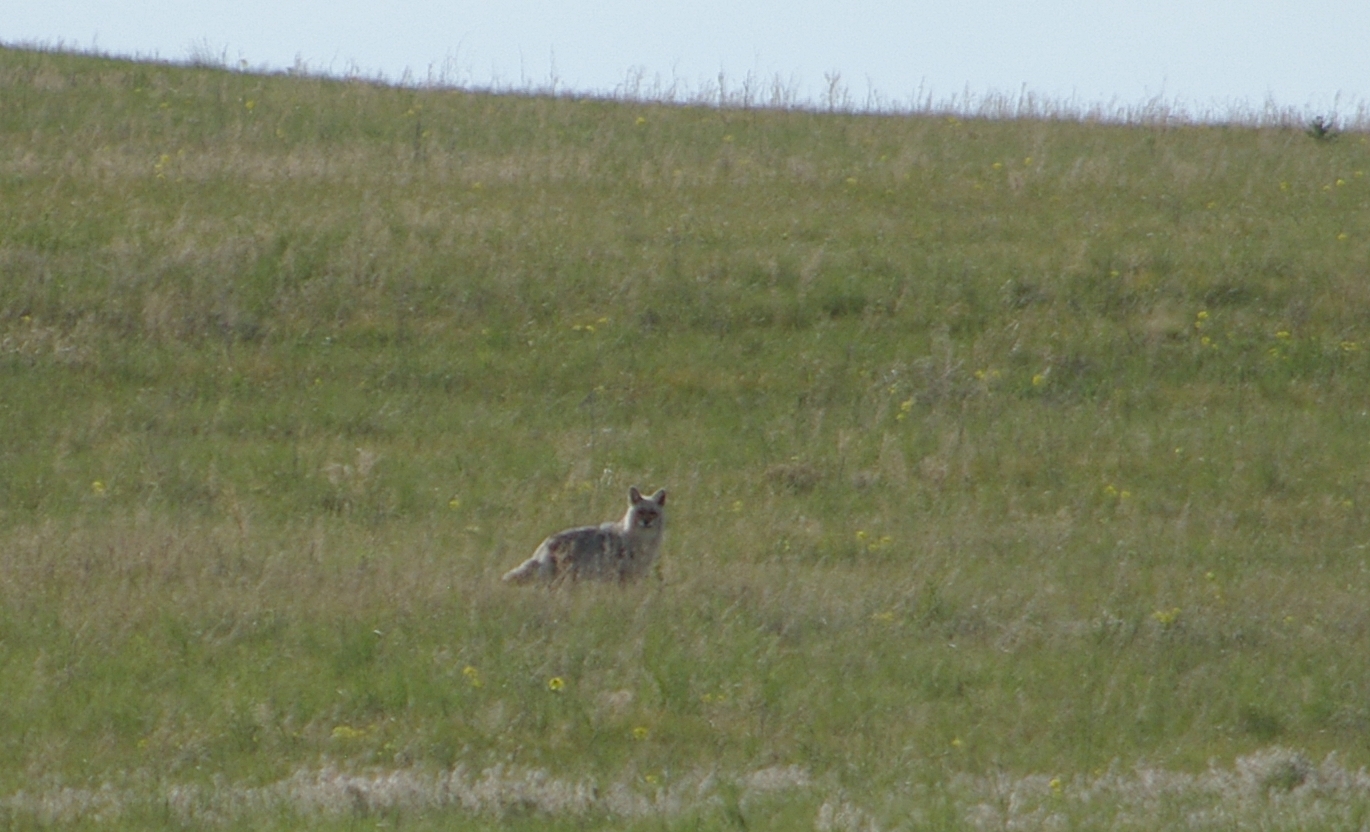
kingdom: Animalia
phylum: Chordata
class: Mammalia
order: Carnivora
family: Canidae
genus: Canis
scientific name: Canis latrans
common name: Coyote
